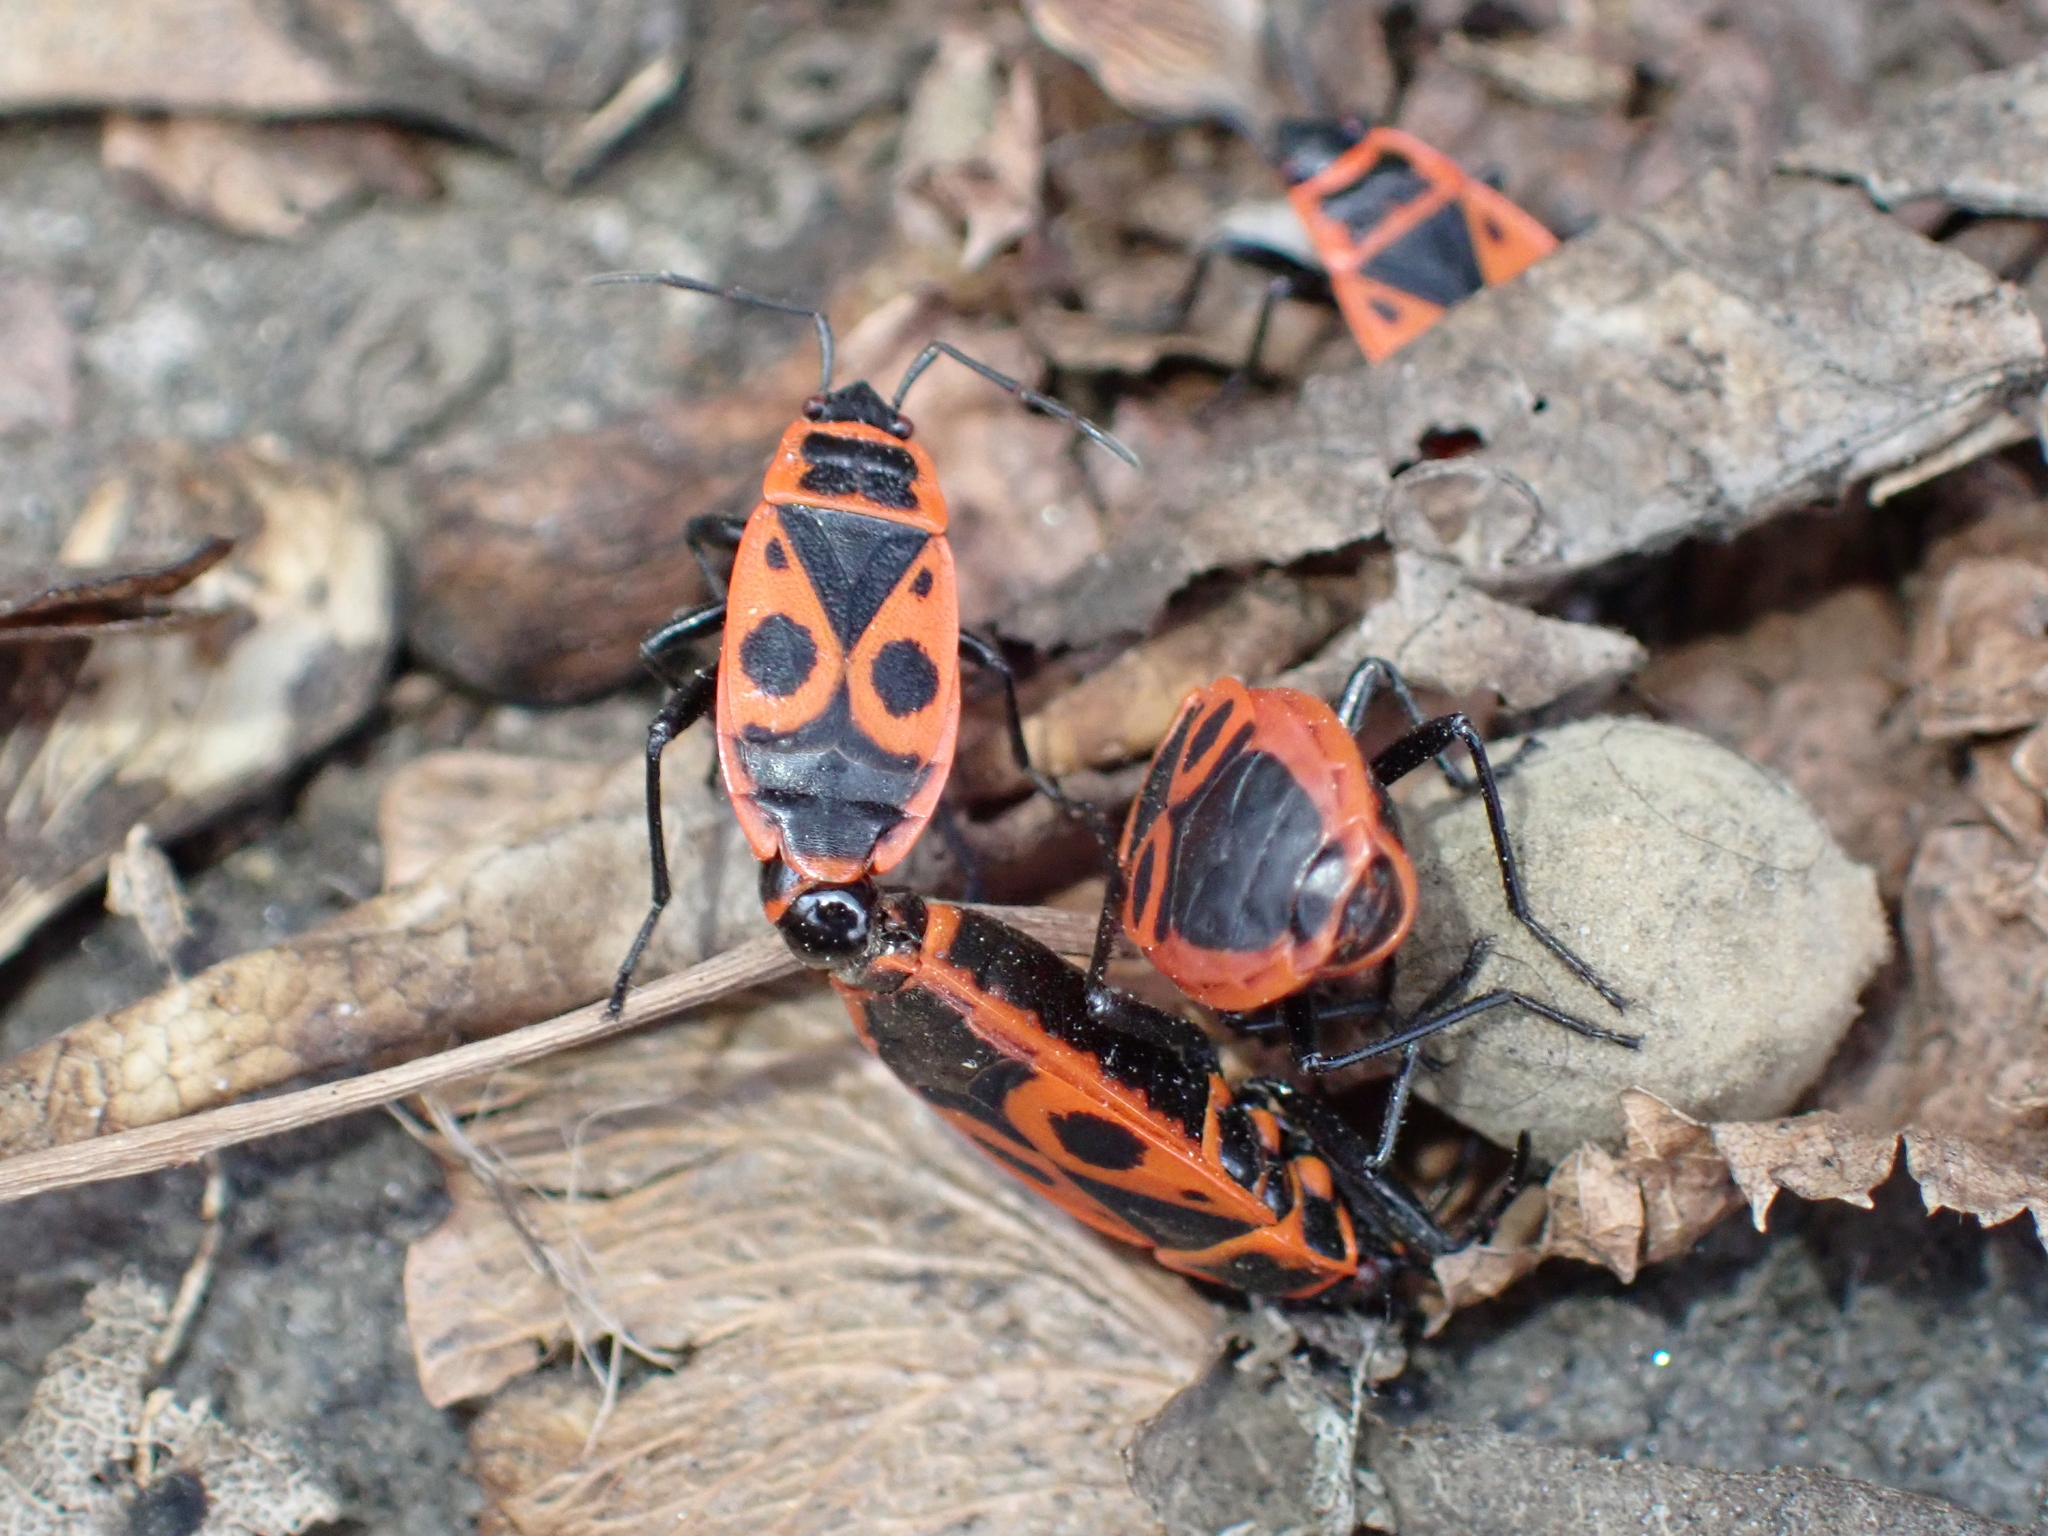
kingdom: Animalia
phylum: Arthropoda
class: Insecta
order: Hemiptera
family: Pyrrhocoridae
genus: Pyrrhocoris
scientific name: Pyrrhocoris apterus
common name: Firebug
